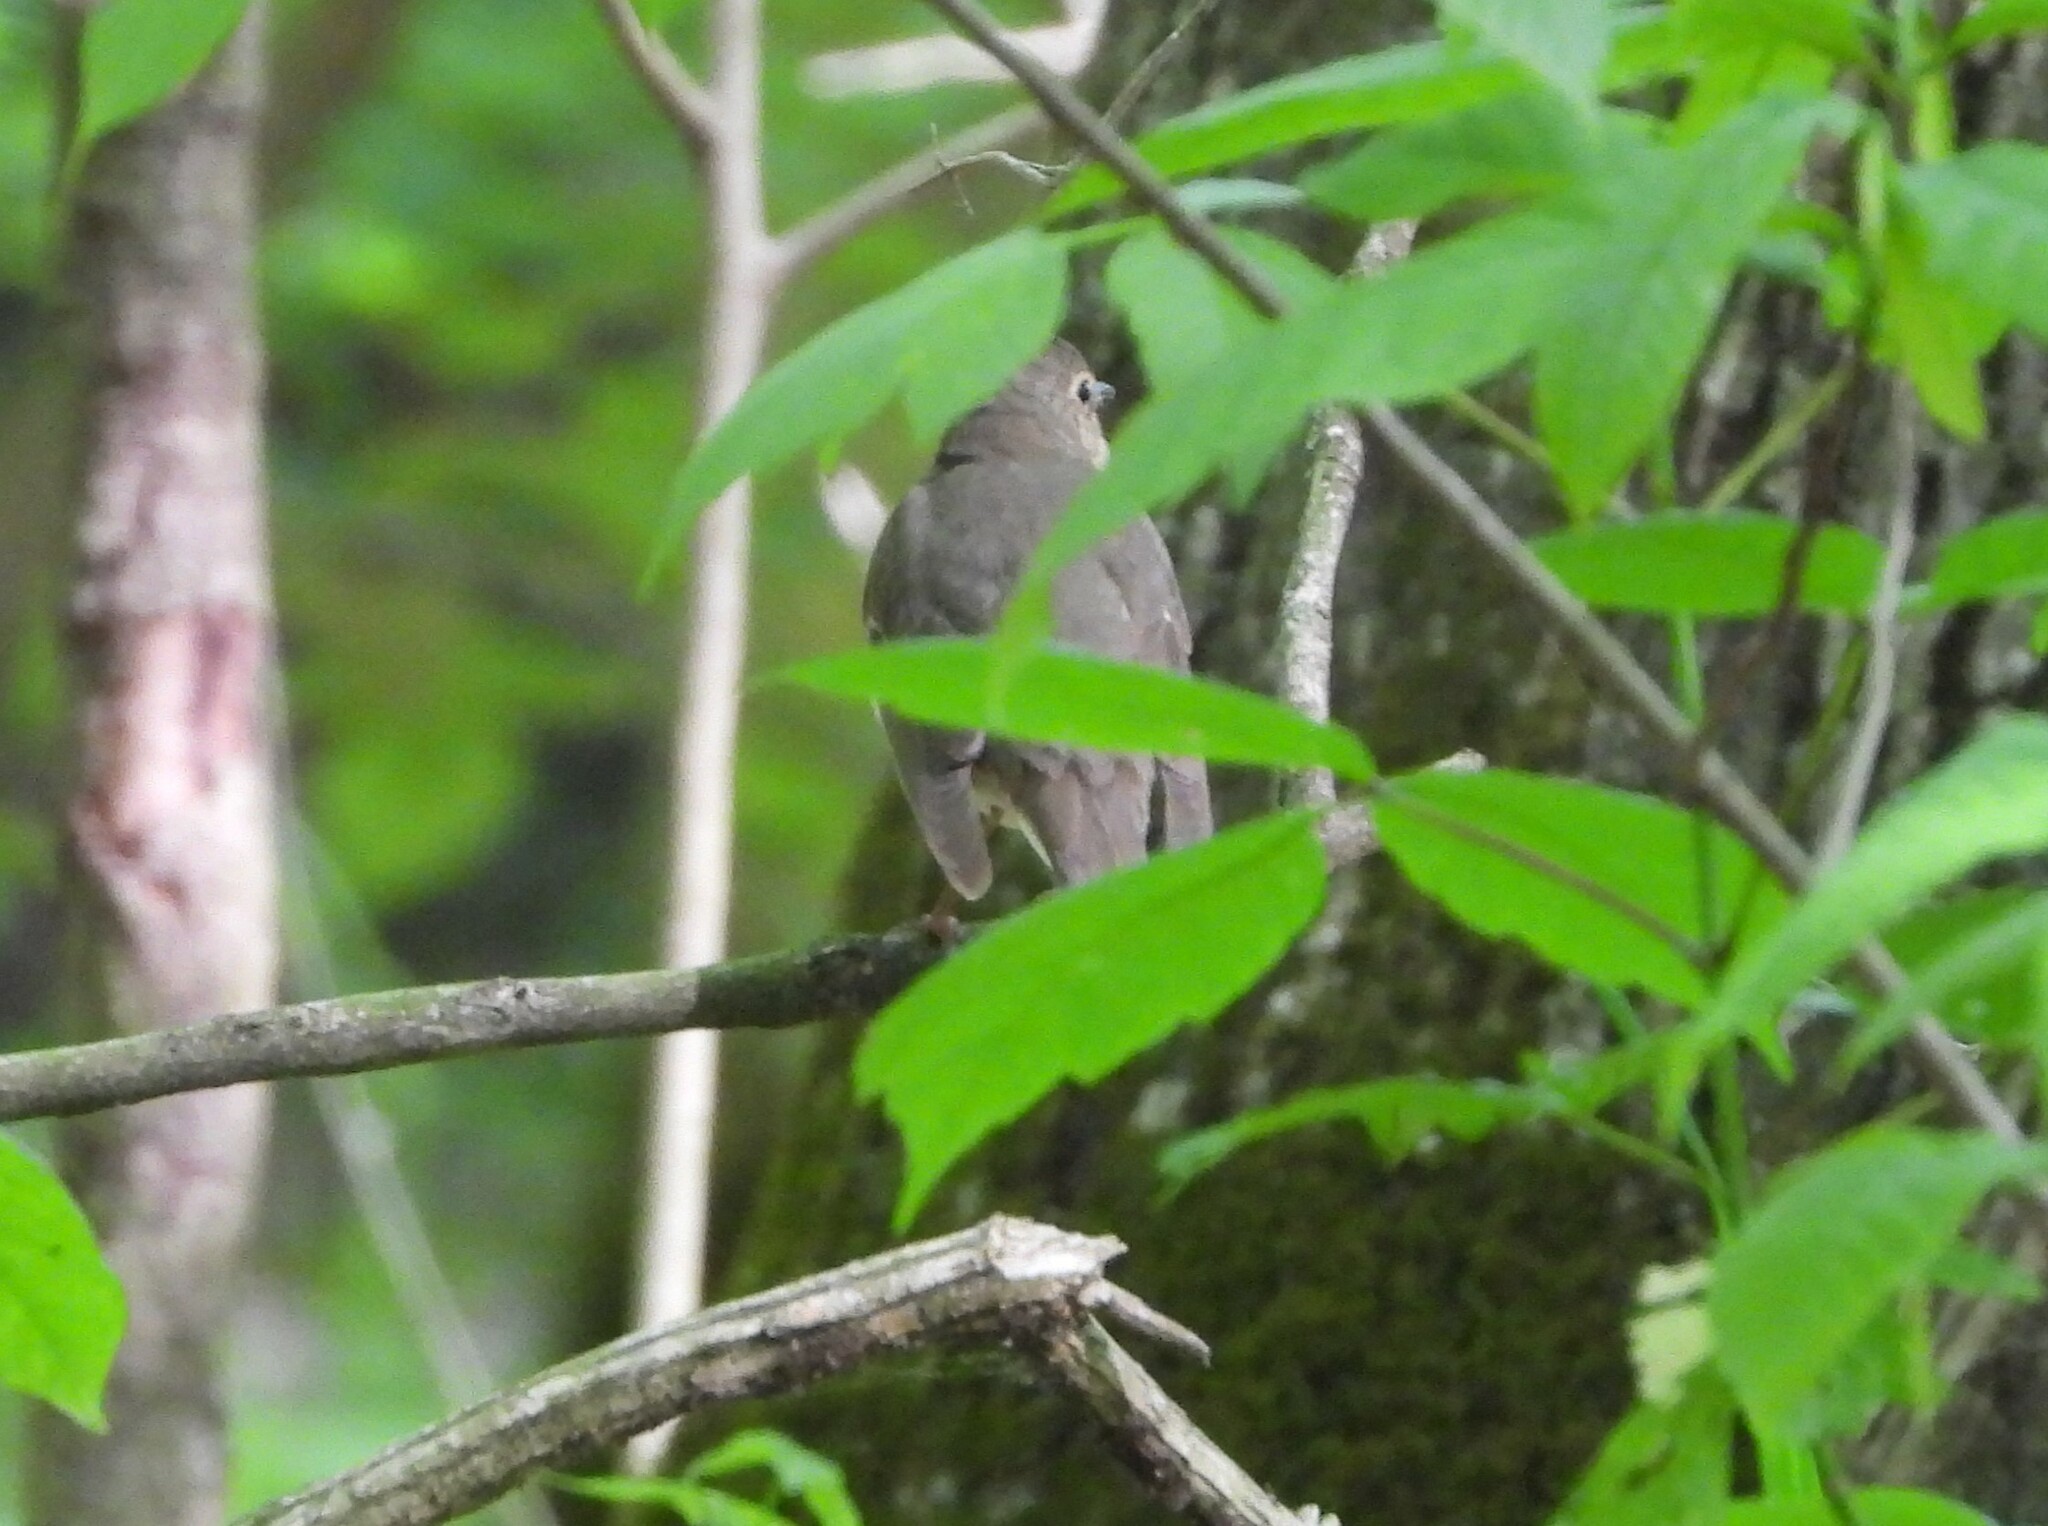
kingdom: Animalia
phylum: Chordata
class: Aves
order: Passeriformes
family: Turdidae
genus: Catharus
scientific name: Catharus ustulatus
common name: Swainson's thrush
